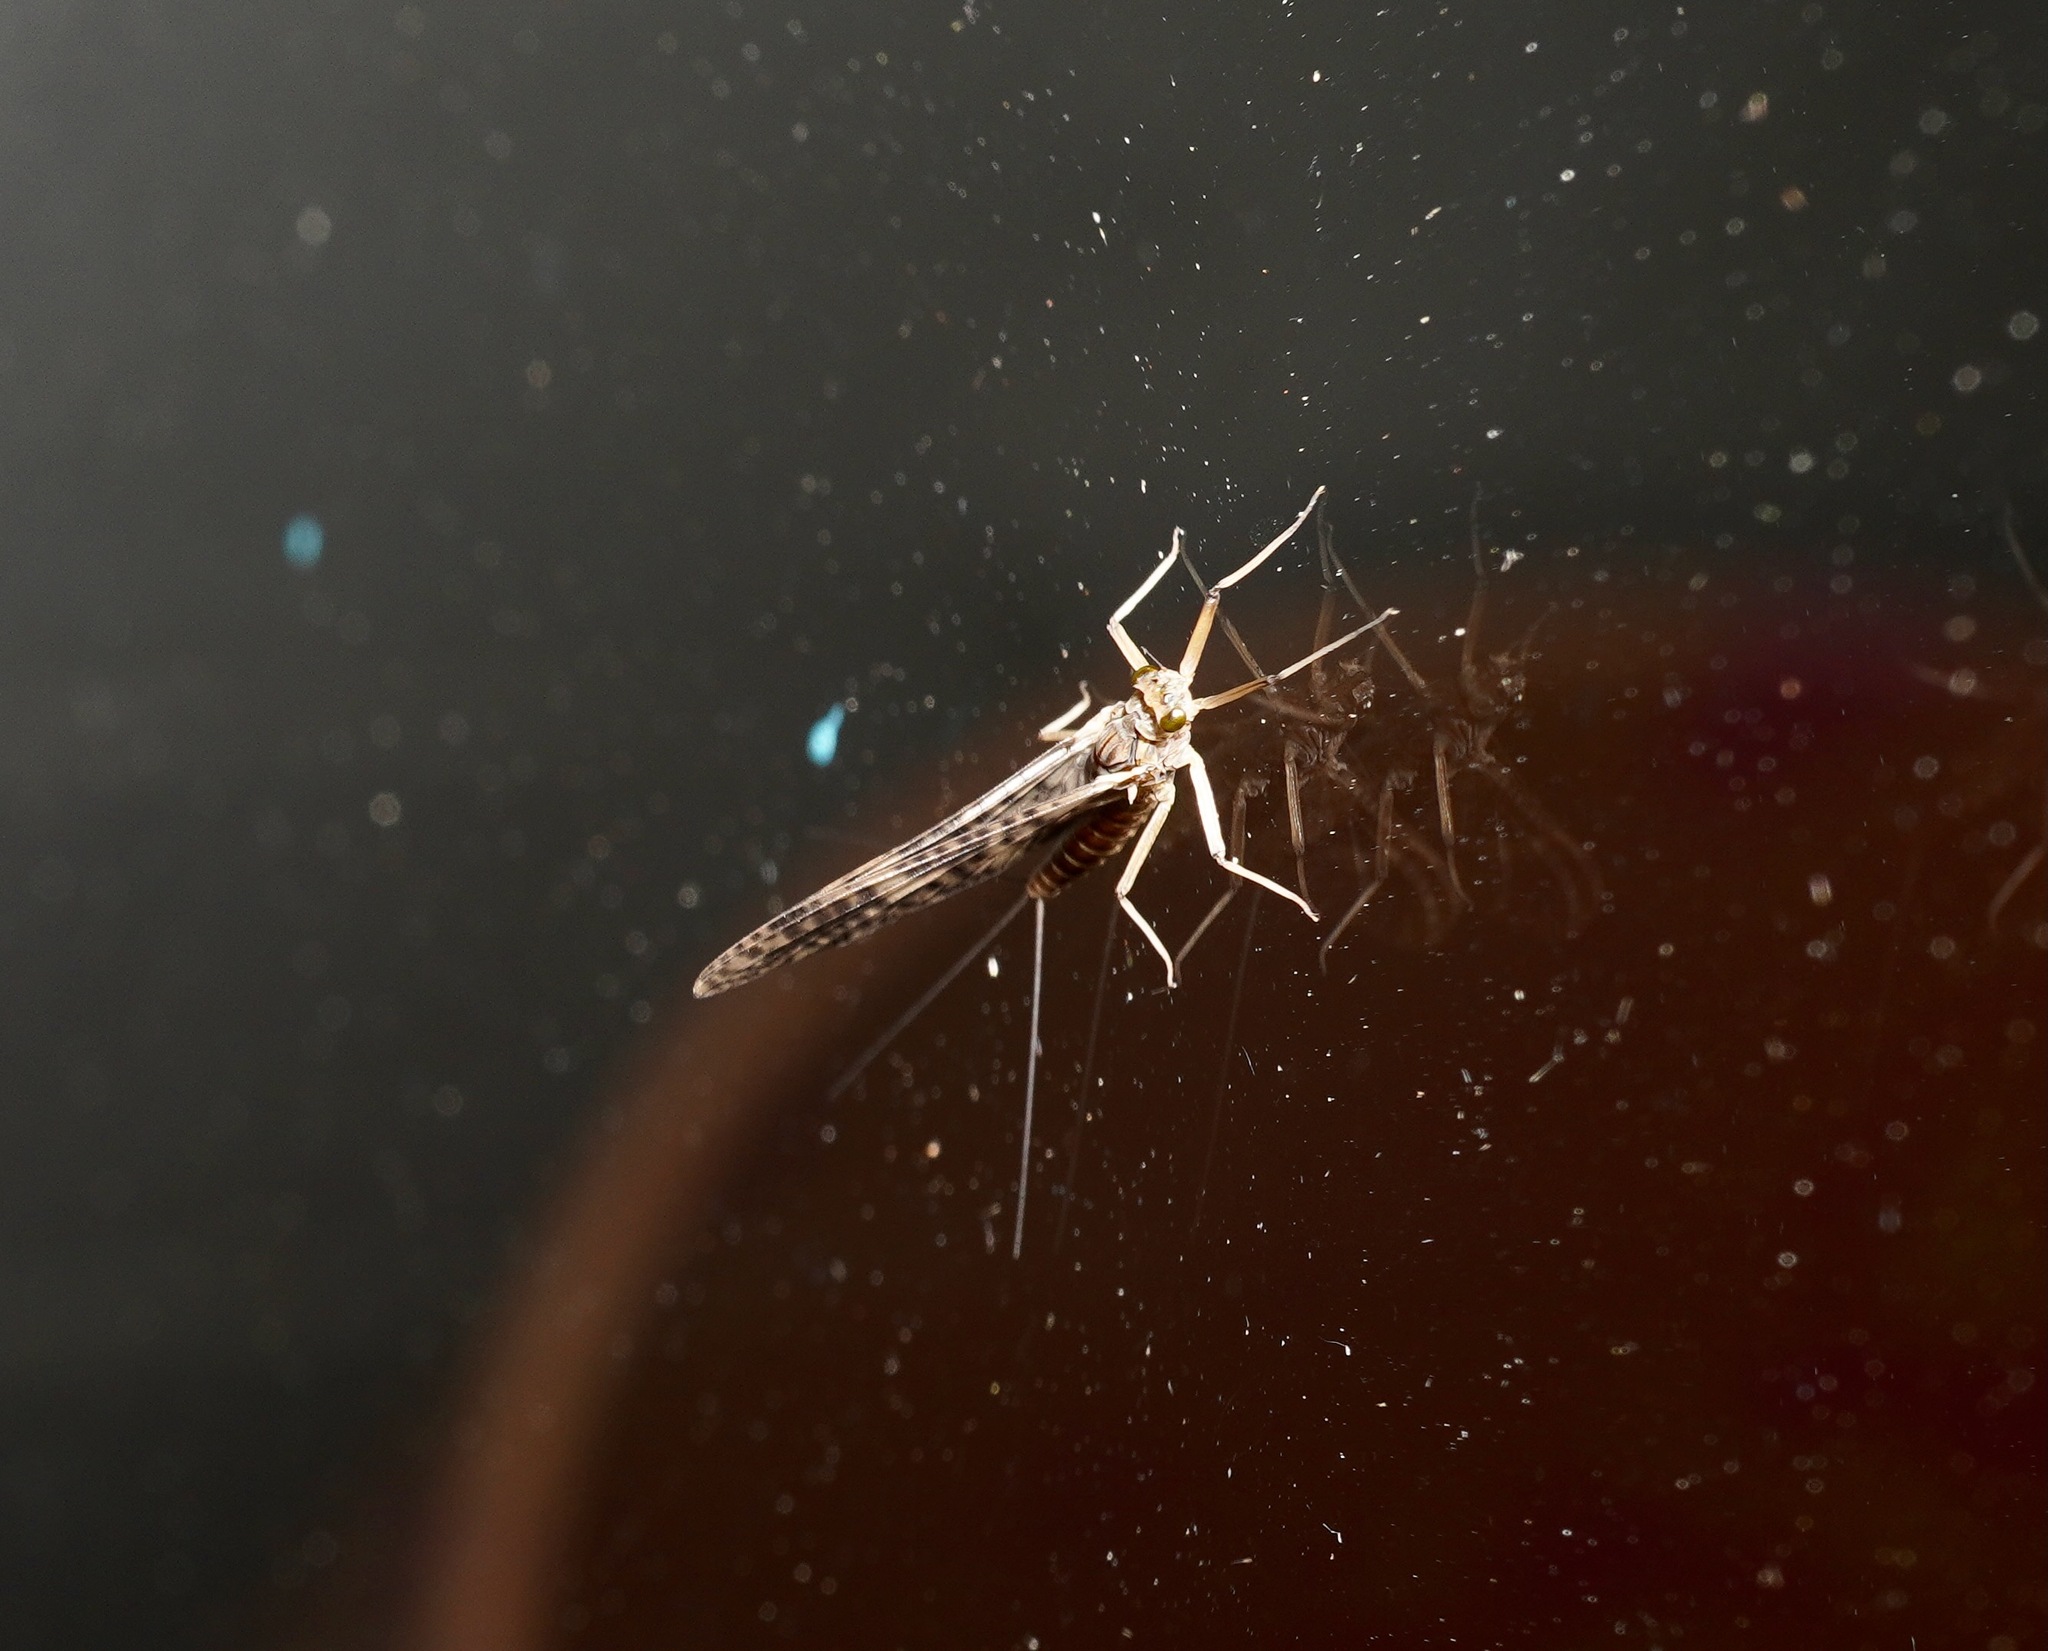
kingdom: Animalia
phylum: Arthropoda
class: Insecta
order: Ephemeroptera
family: Leptophlebiidae
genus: Deleatidium
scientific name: Deleatidium autumnale
